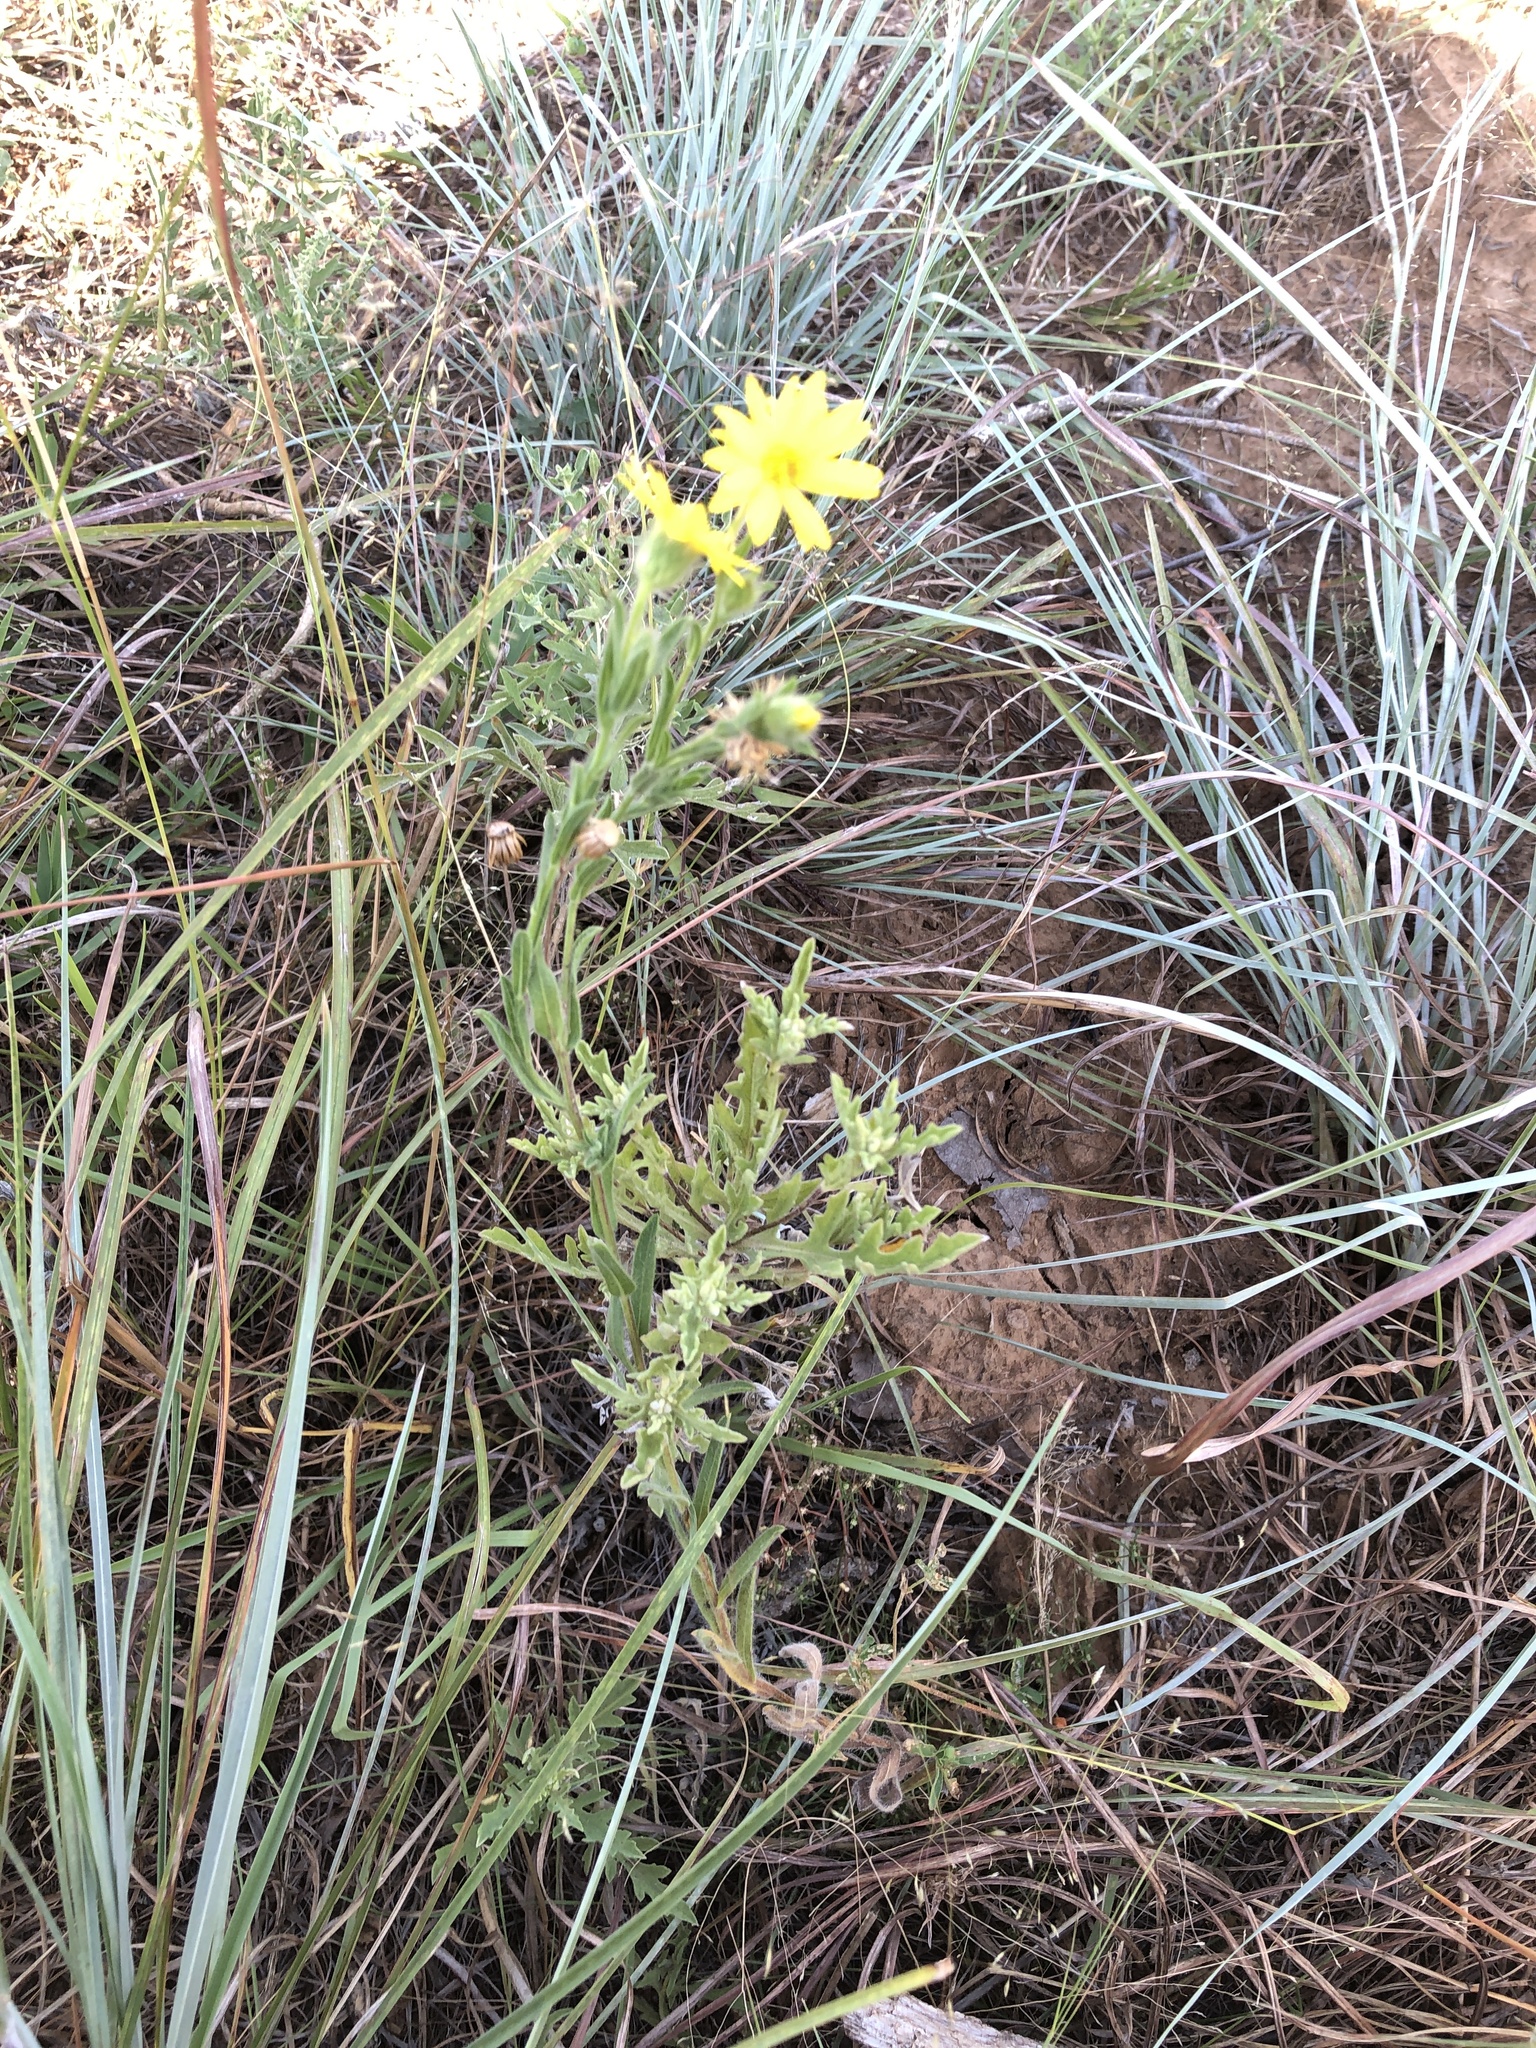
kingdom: Plantae
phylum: Tracheophyta
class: Magnoliopsida
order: Asterales
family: Asteraceae
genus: Bradburia
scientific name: Bradburia pilosa
